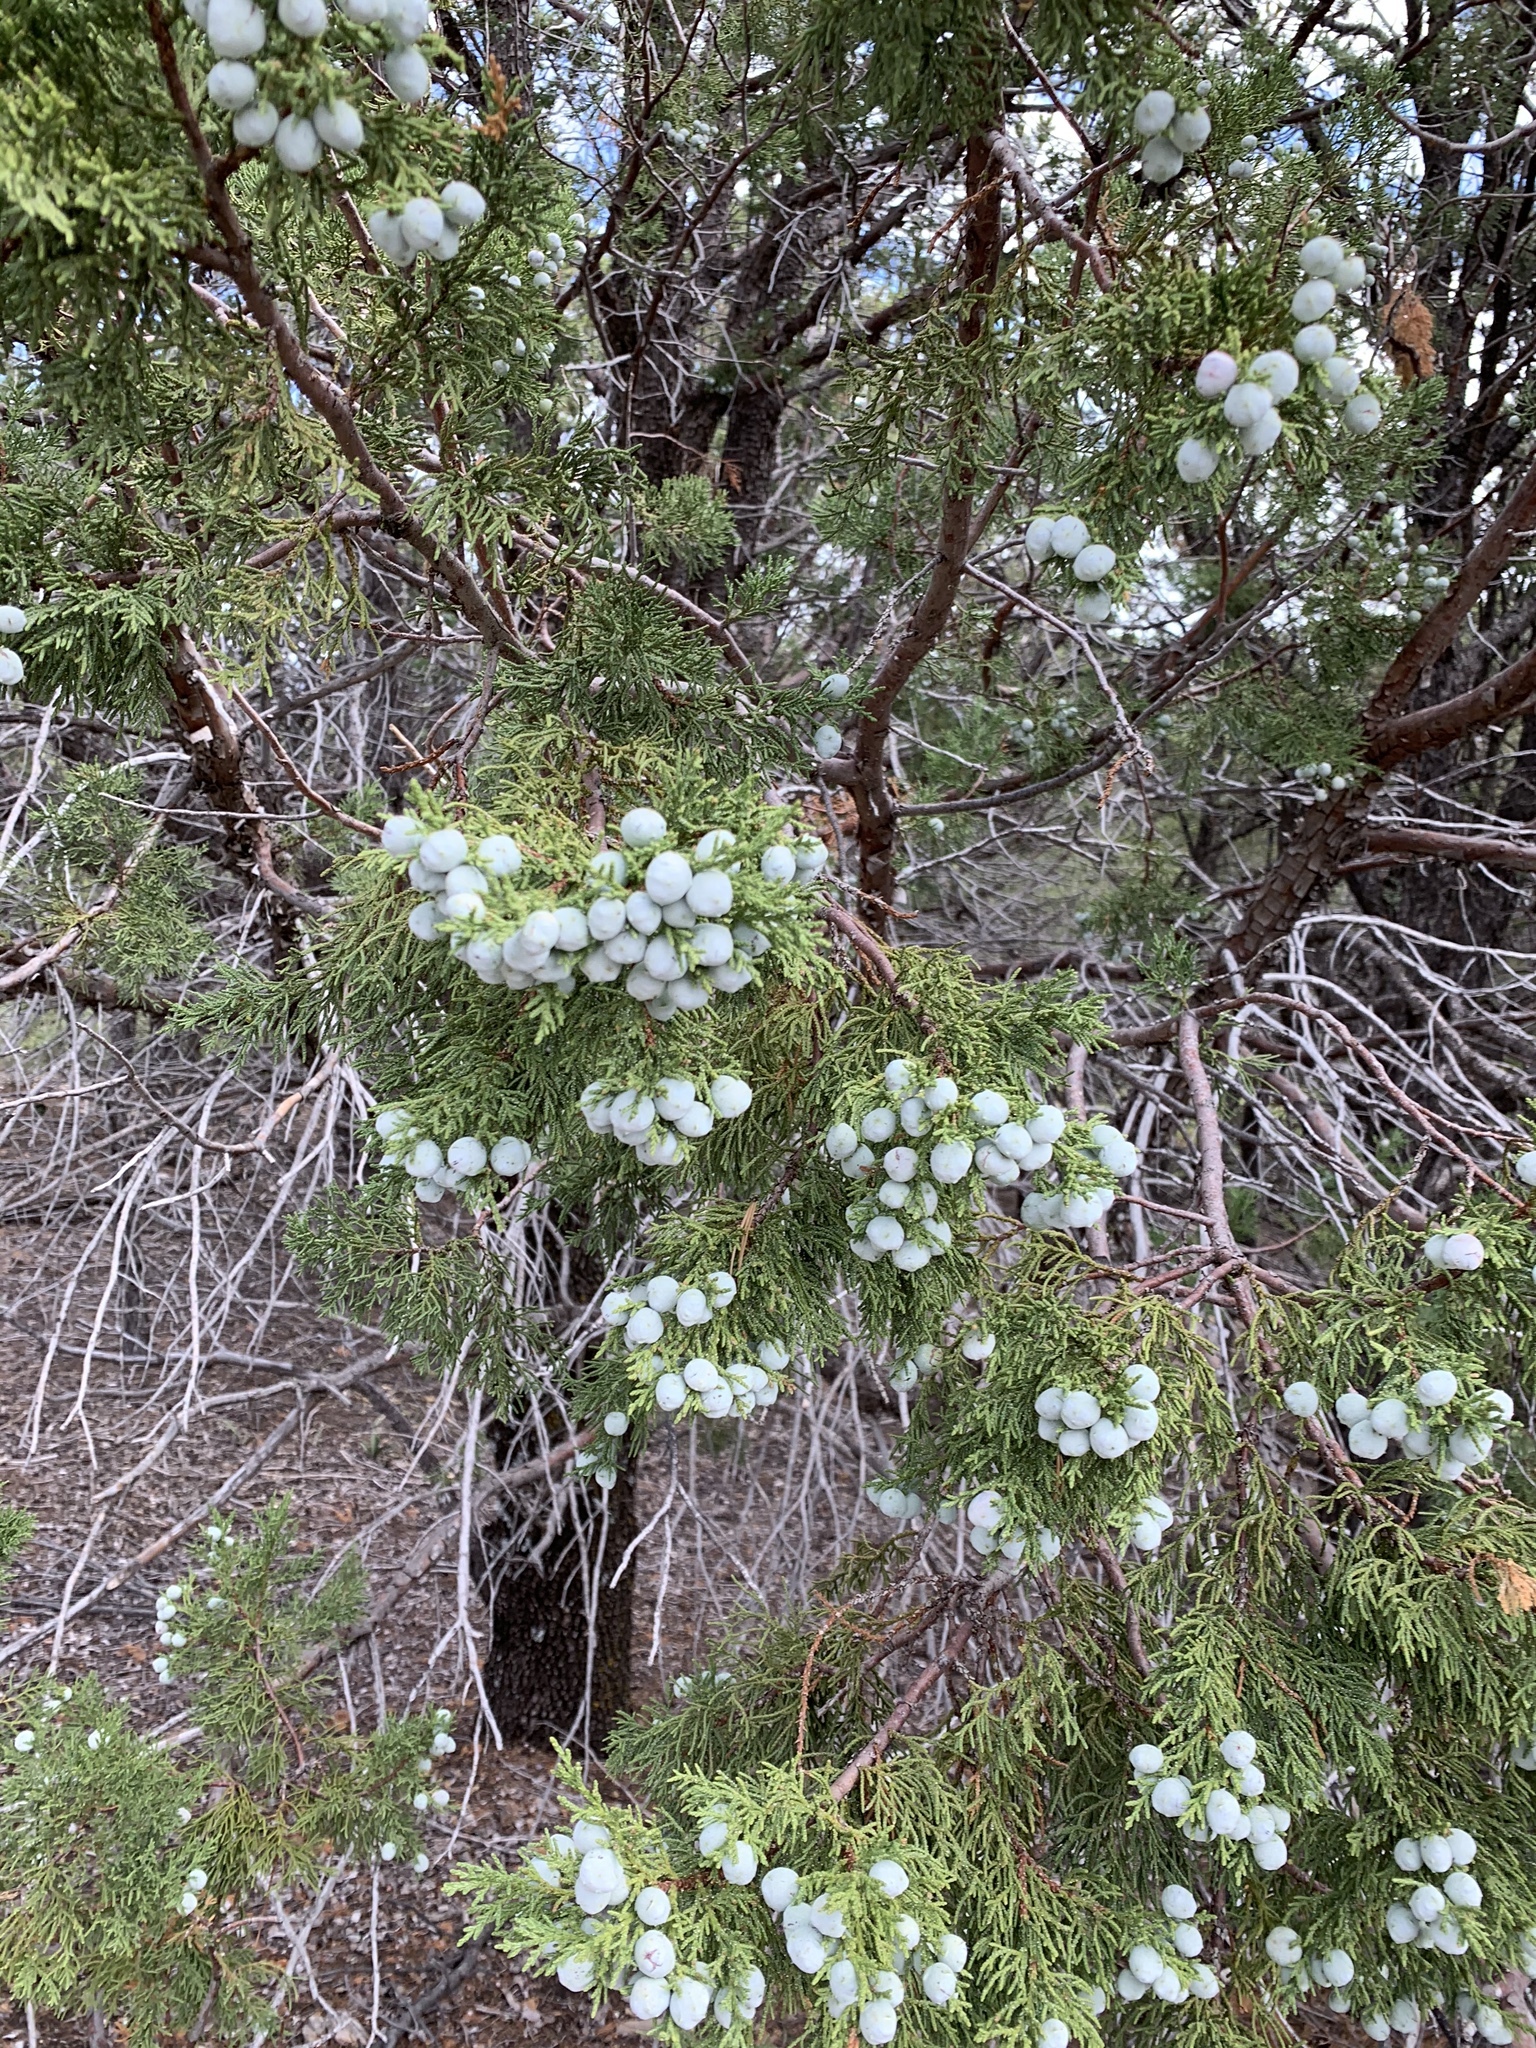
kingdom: Plantae
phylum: Tracheophyta
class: Pinopsida
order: Pinales
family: Cupressaceae
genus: Juniperus
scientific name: Juniperus deppeana
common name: Alligator juniper
